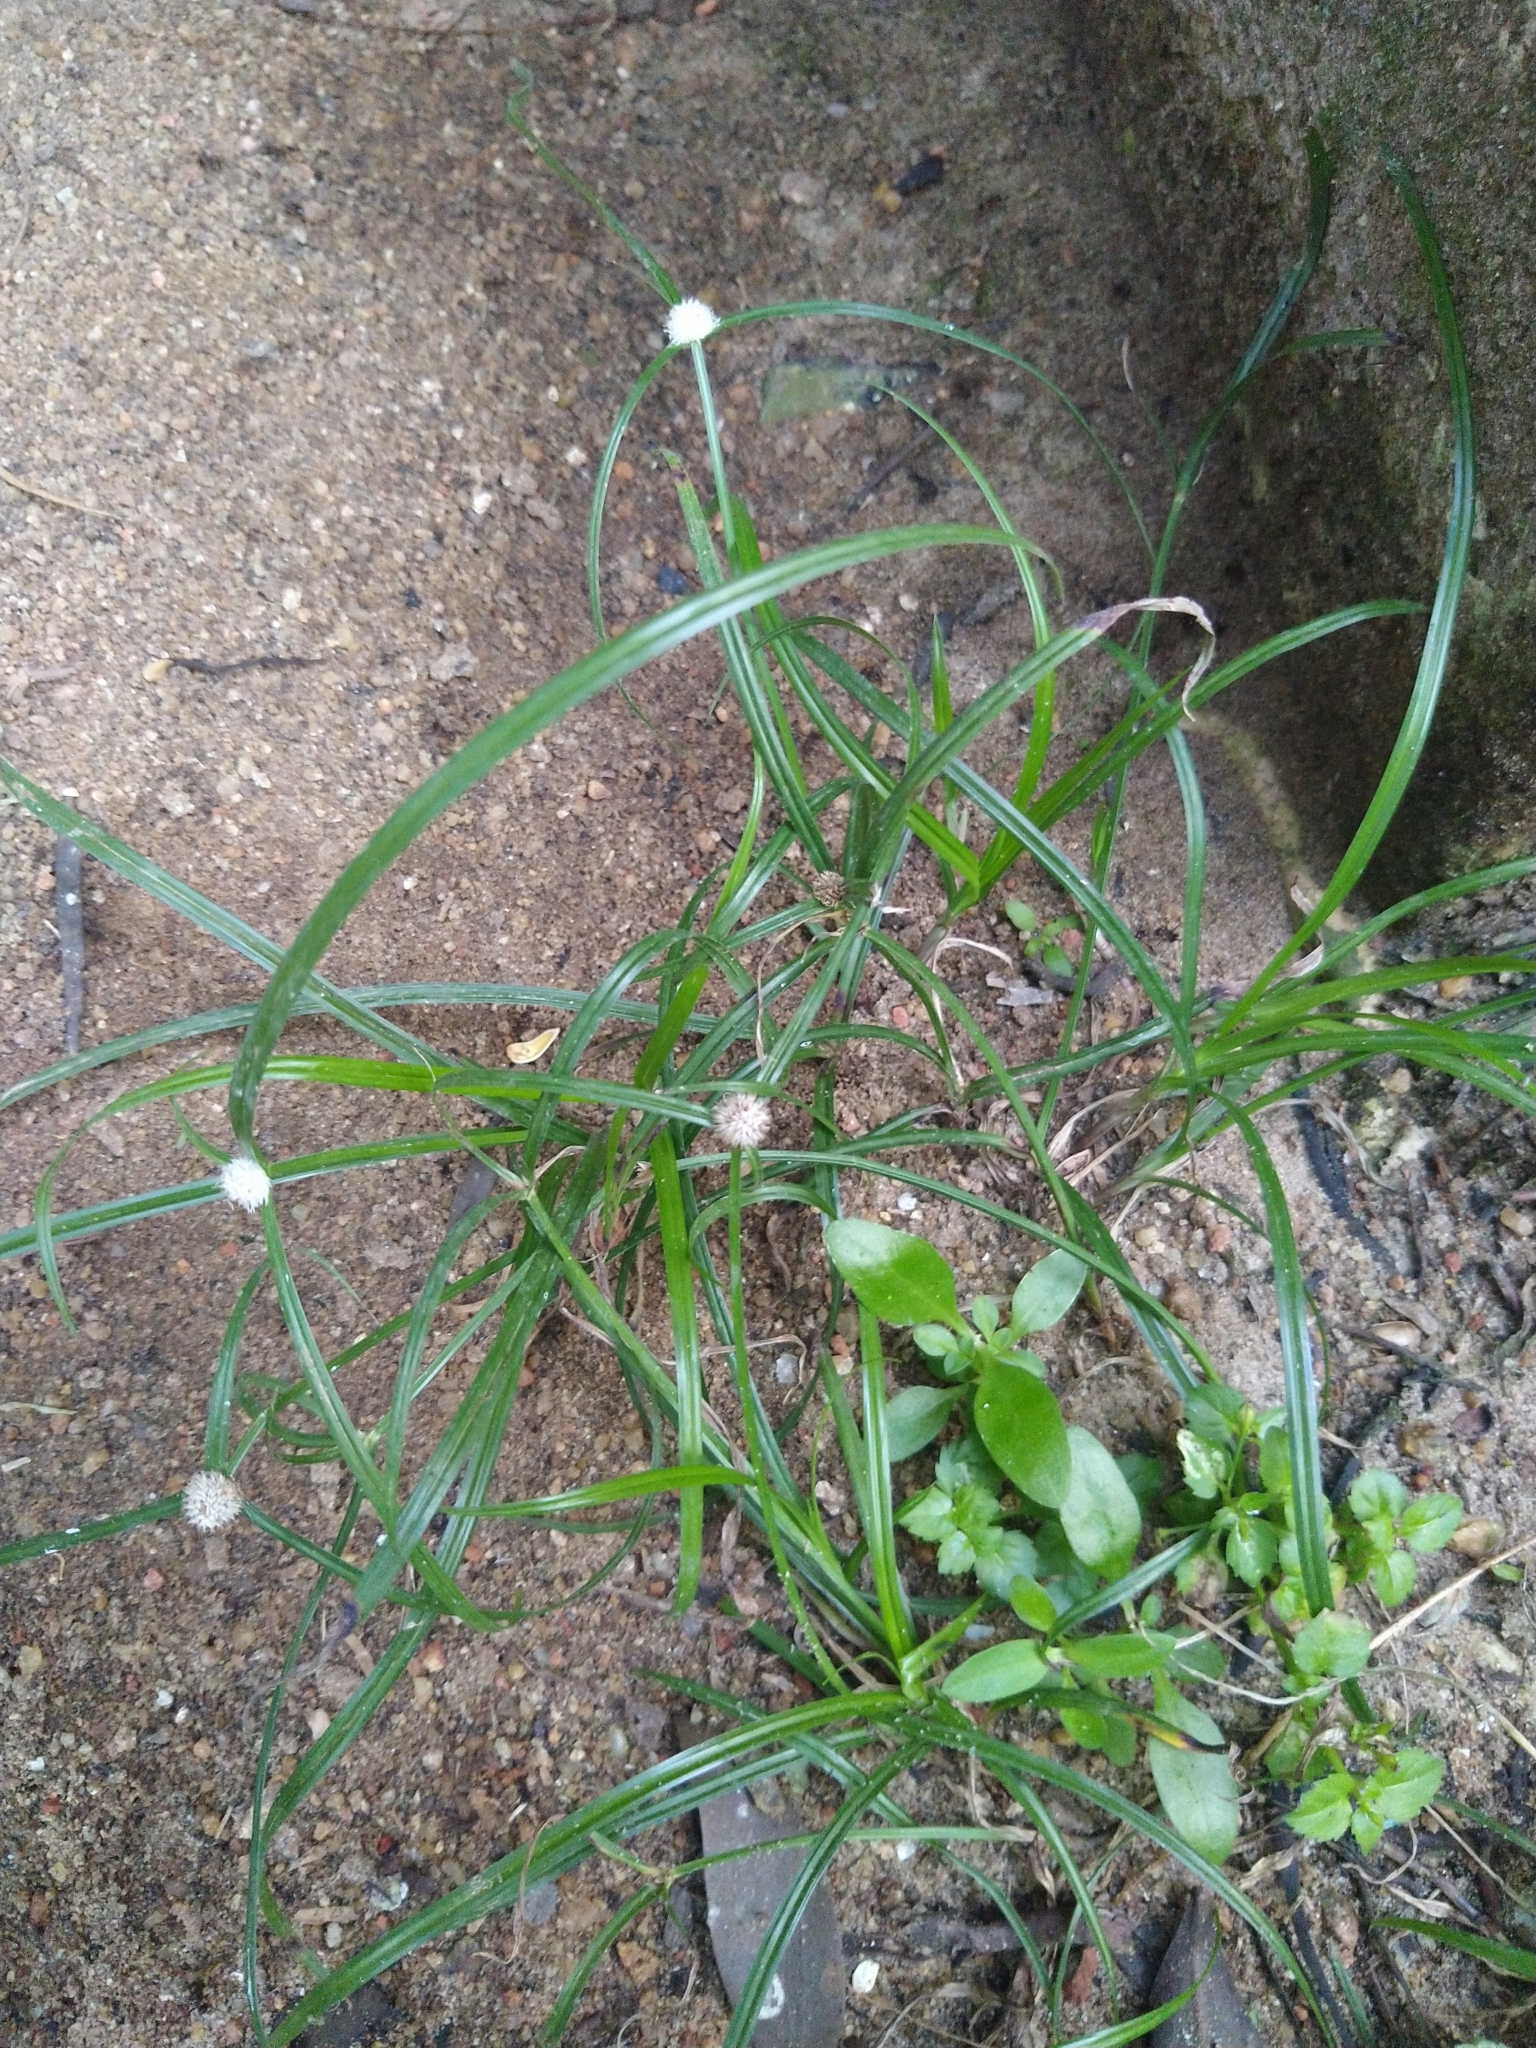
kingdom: Plantae
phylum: Tracheophyta
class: Liliopsida
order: Poales
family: Cyperaceae
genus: Cyperus
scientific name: Cyperus mindorensis
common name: Flatsedge
